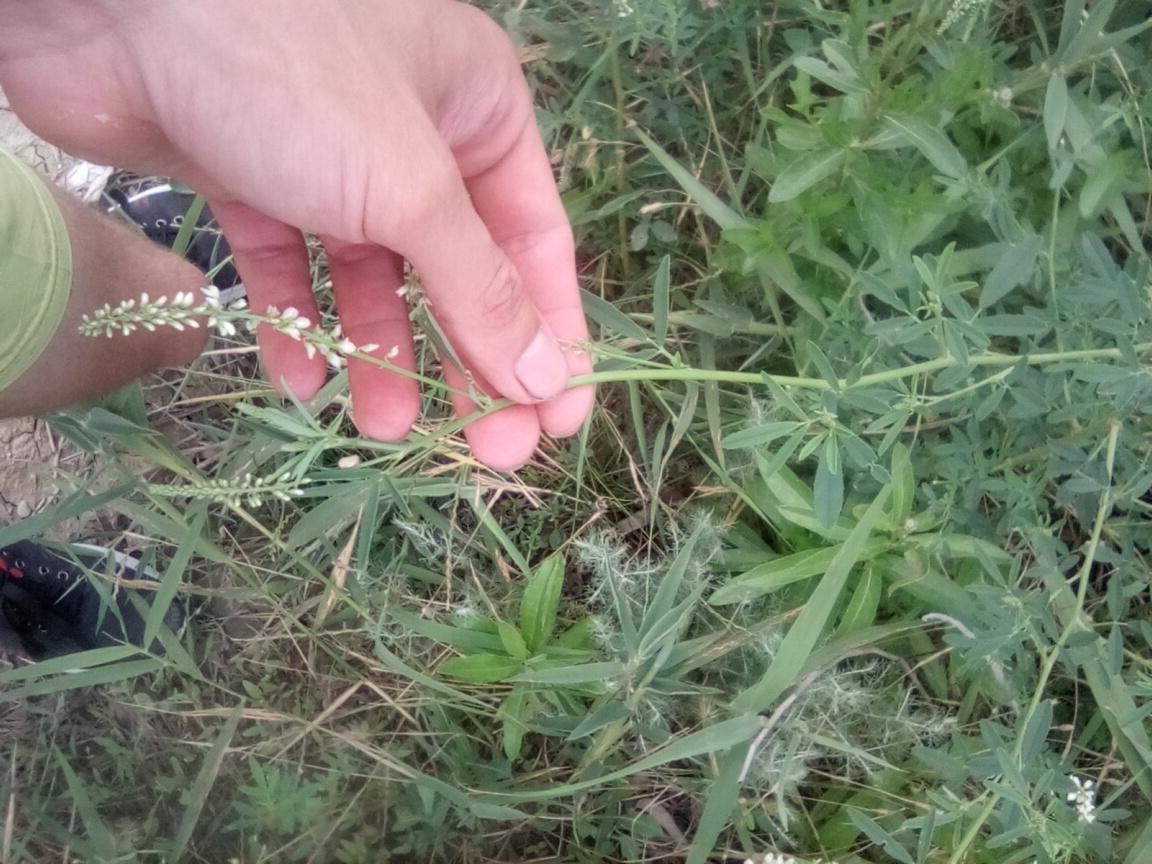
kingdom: Plantae
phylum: Tracheophyta
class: Magnoliopsida
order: Fabales
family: Fabaceae
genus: Melilotus
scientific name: Melilotus albus
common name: White melilot
